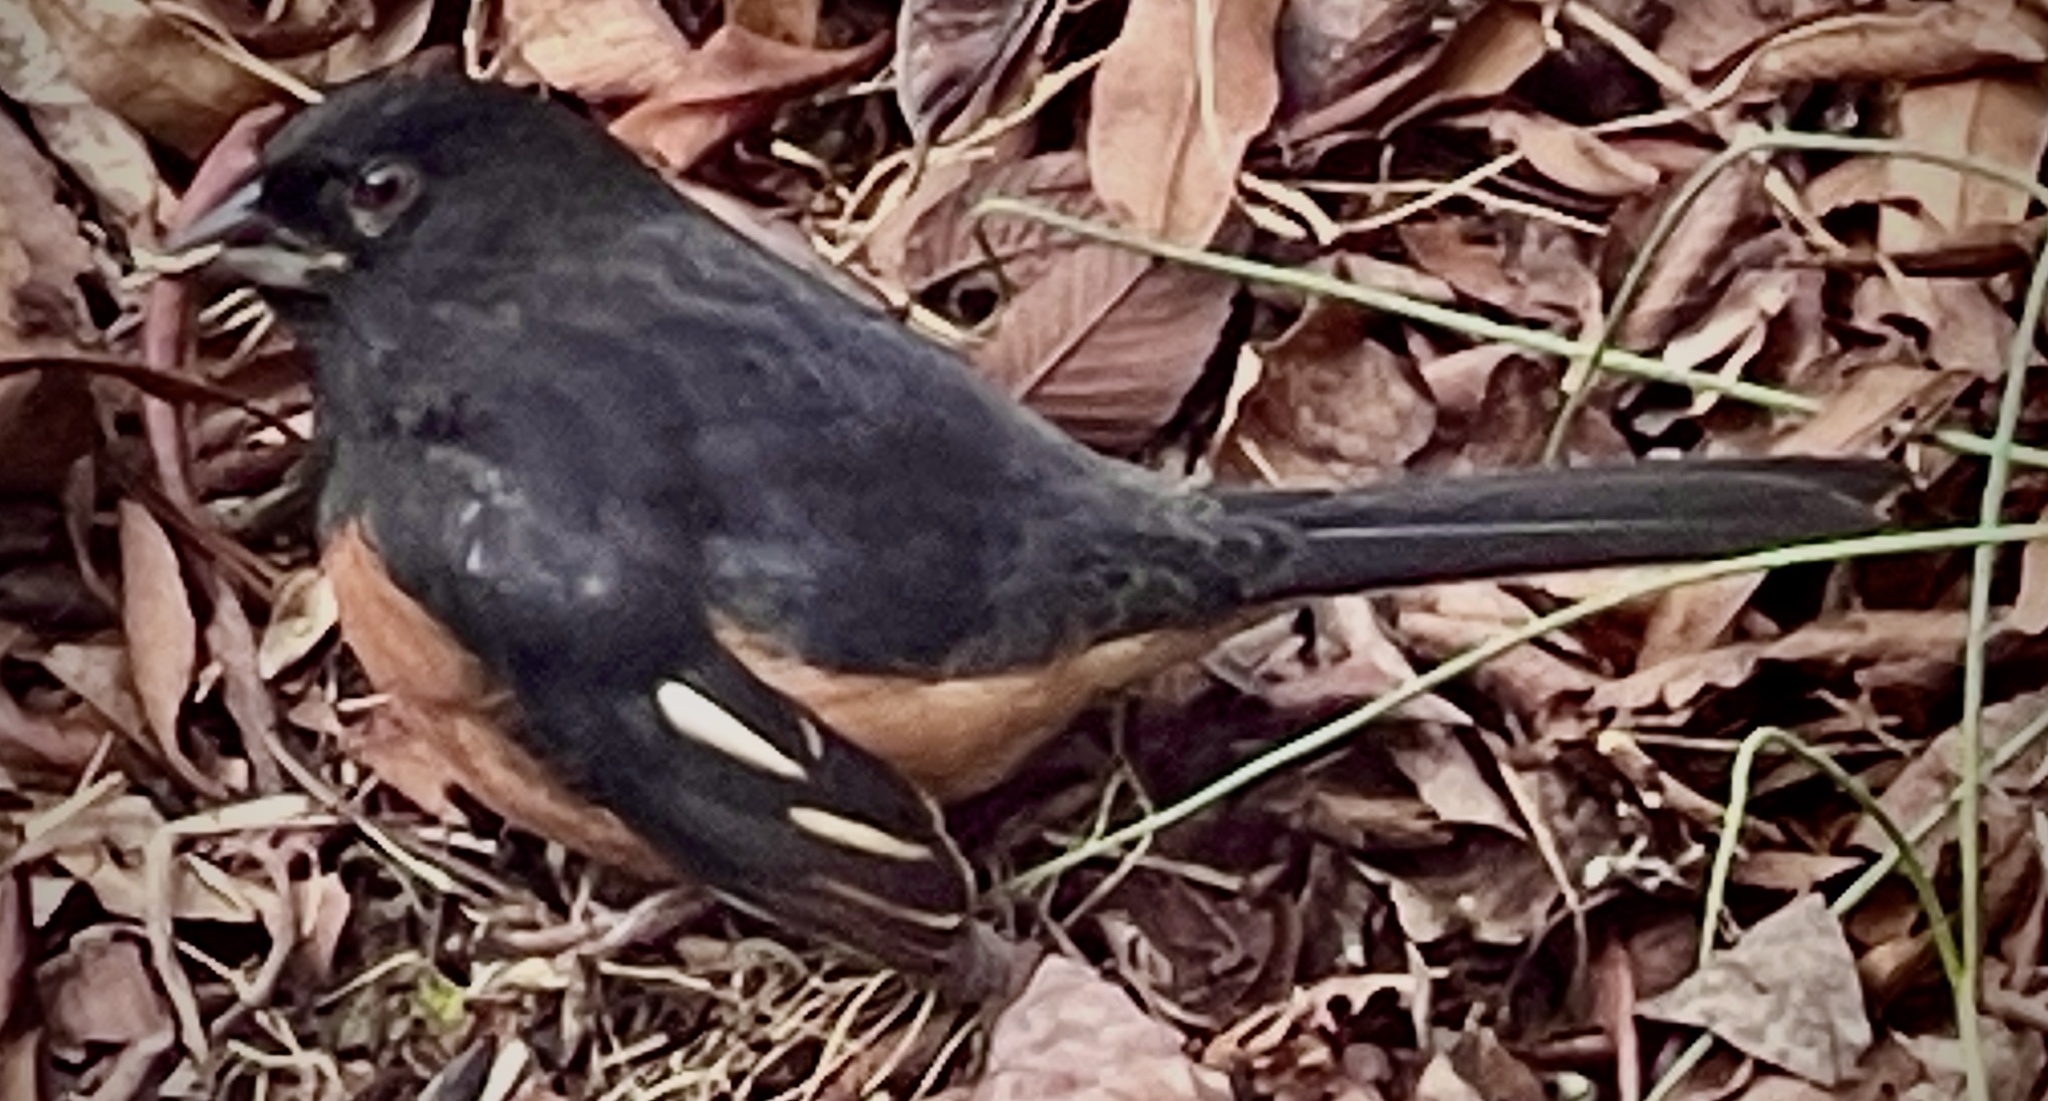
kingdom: Animalia
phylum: Chordata
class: Aves
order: Passeriformes
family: Passerellidae
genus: Pipilo
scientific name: Pipilo erythrophthalmus
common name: Eastern towhee
